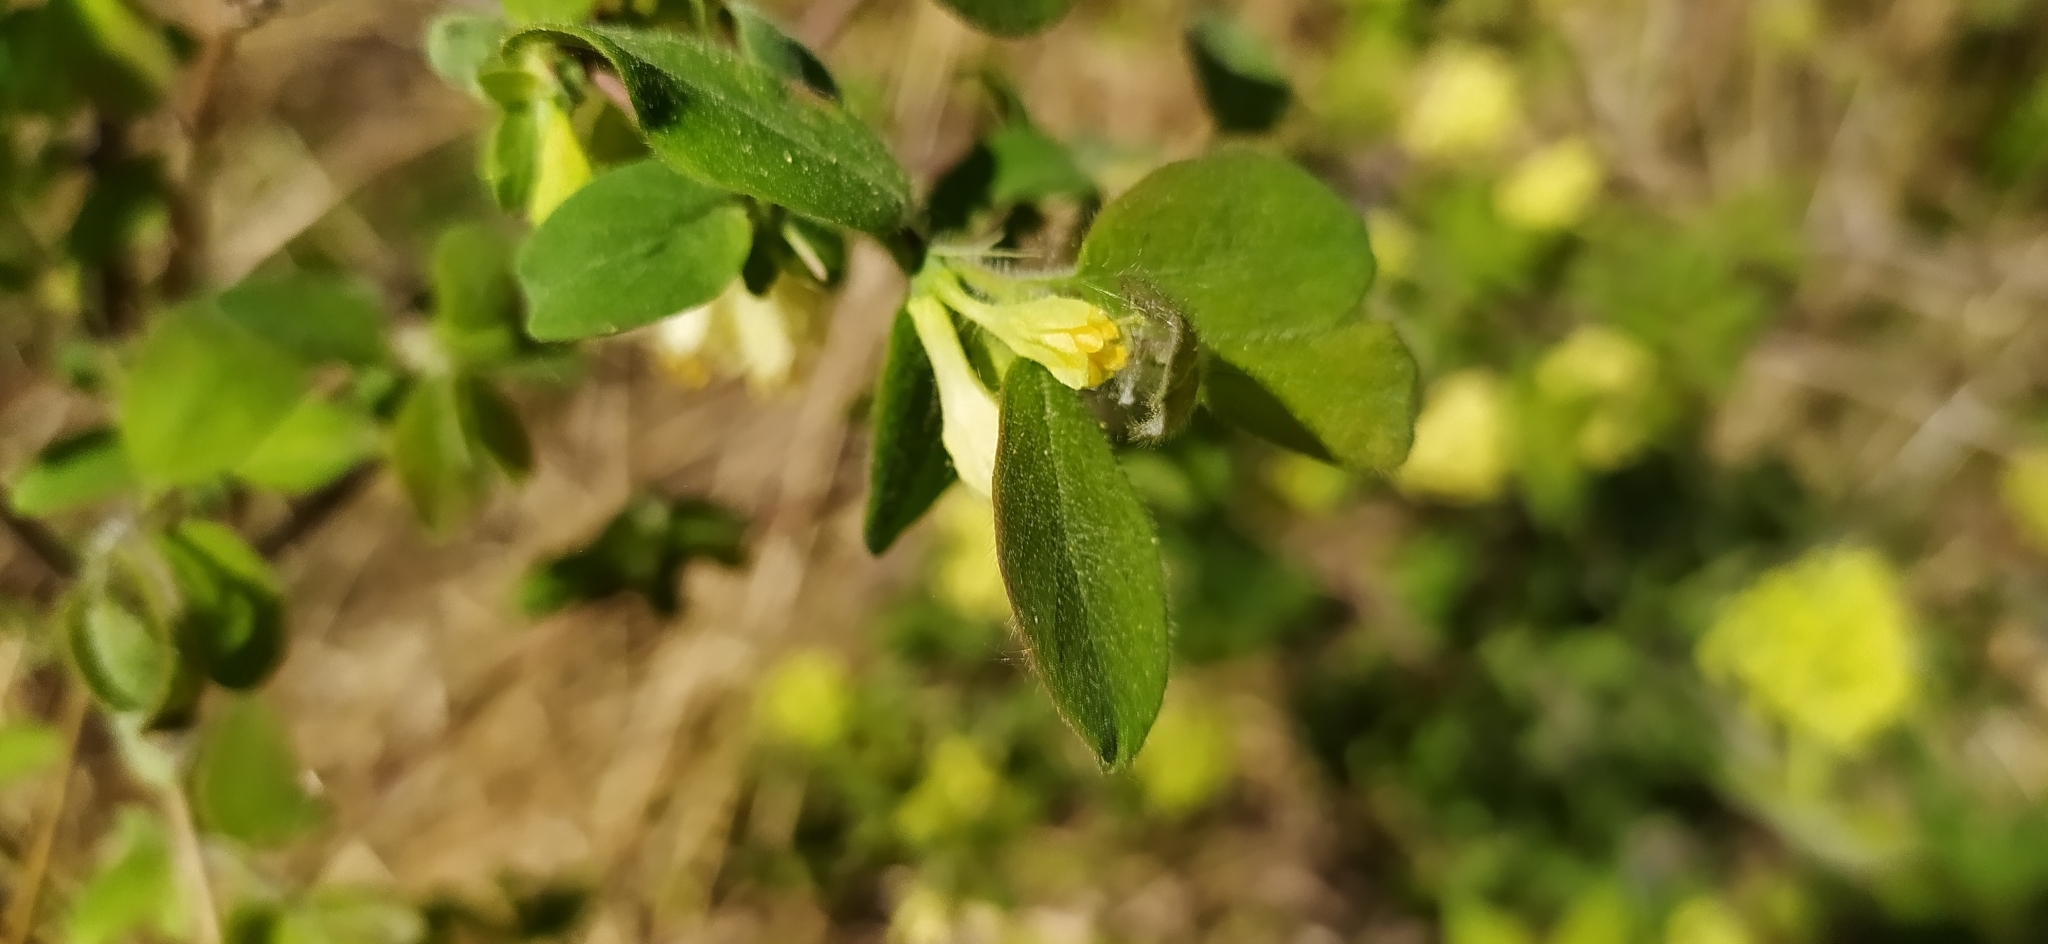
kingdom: Plantae
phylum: Tracheophyta
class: Magnoliopsida
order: Dipsacales
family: Caprifoliaceae
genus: Lonicera
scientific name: Lonicera caerulea
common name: Blue honeysuckle
